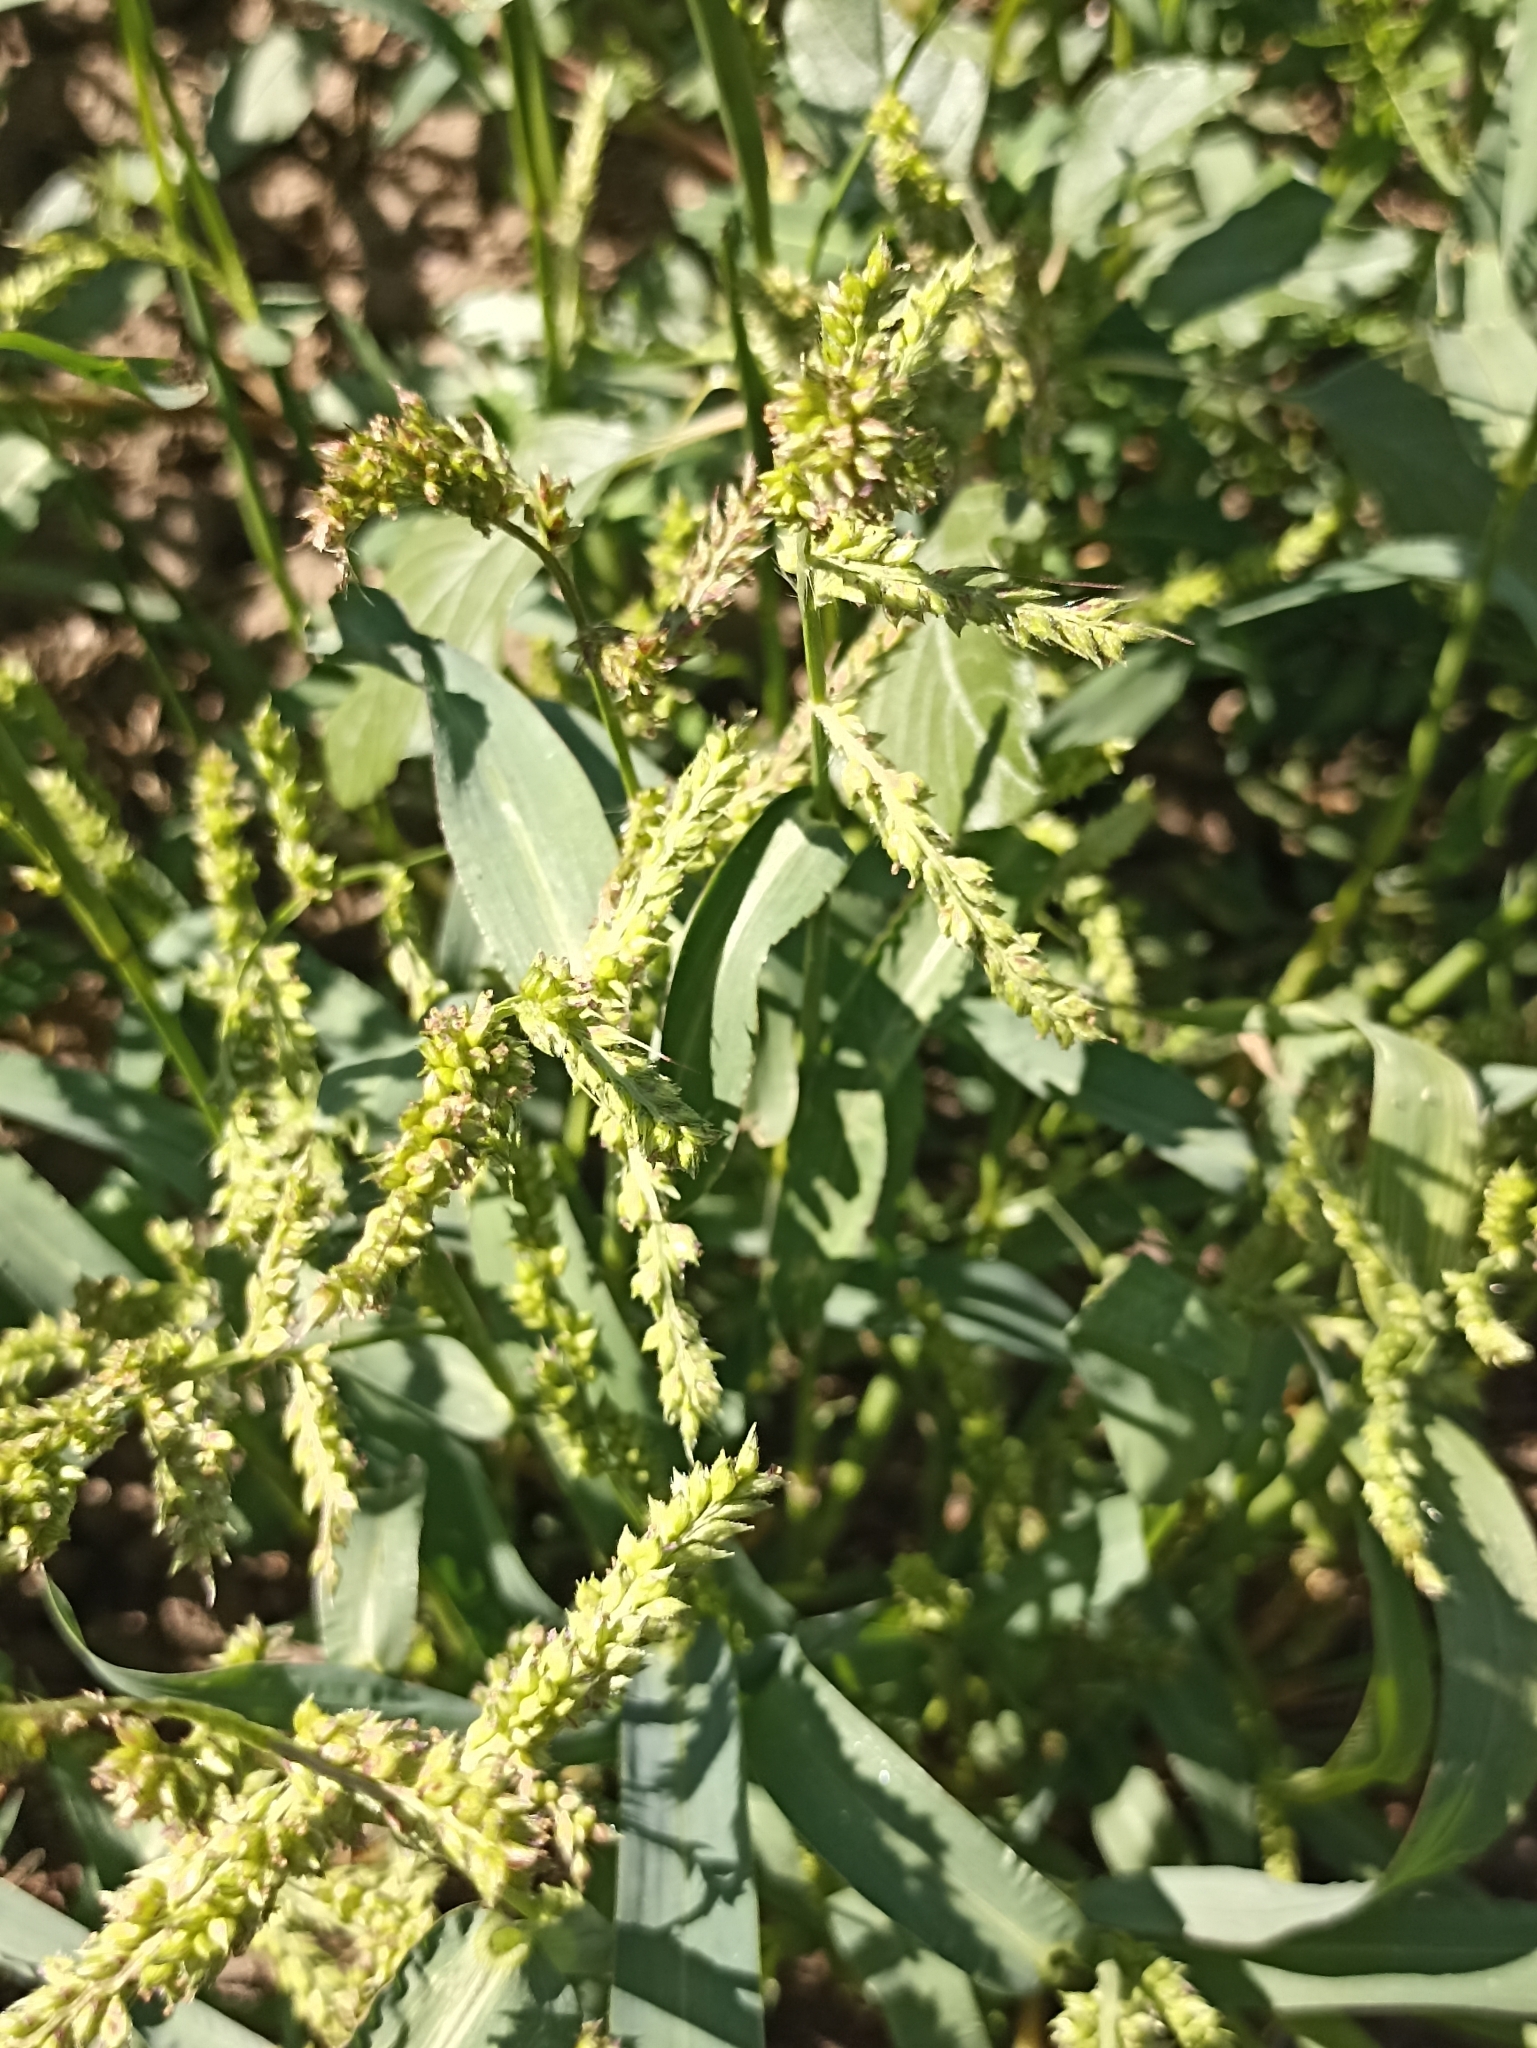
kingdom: Plantae
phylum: Tracheophyta
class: Liliopsida
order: Poales
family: Poaceae
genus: Echinochloa
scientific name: Echinochloa crus-galli
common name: Cockspur
